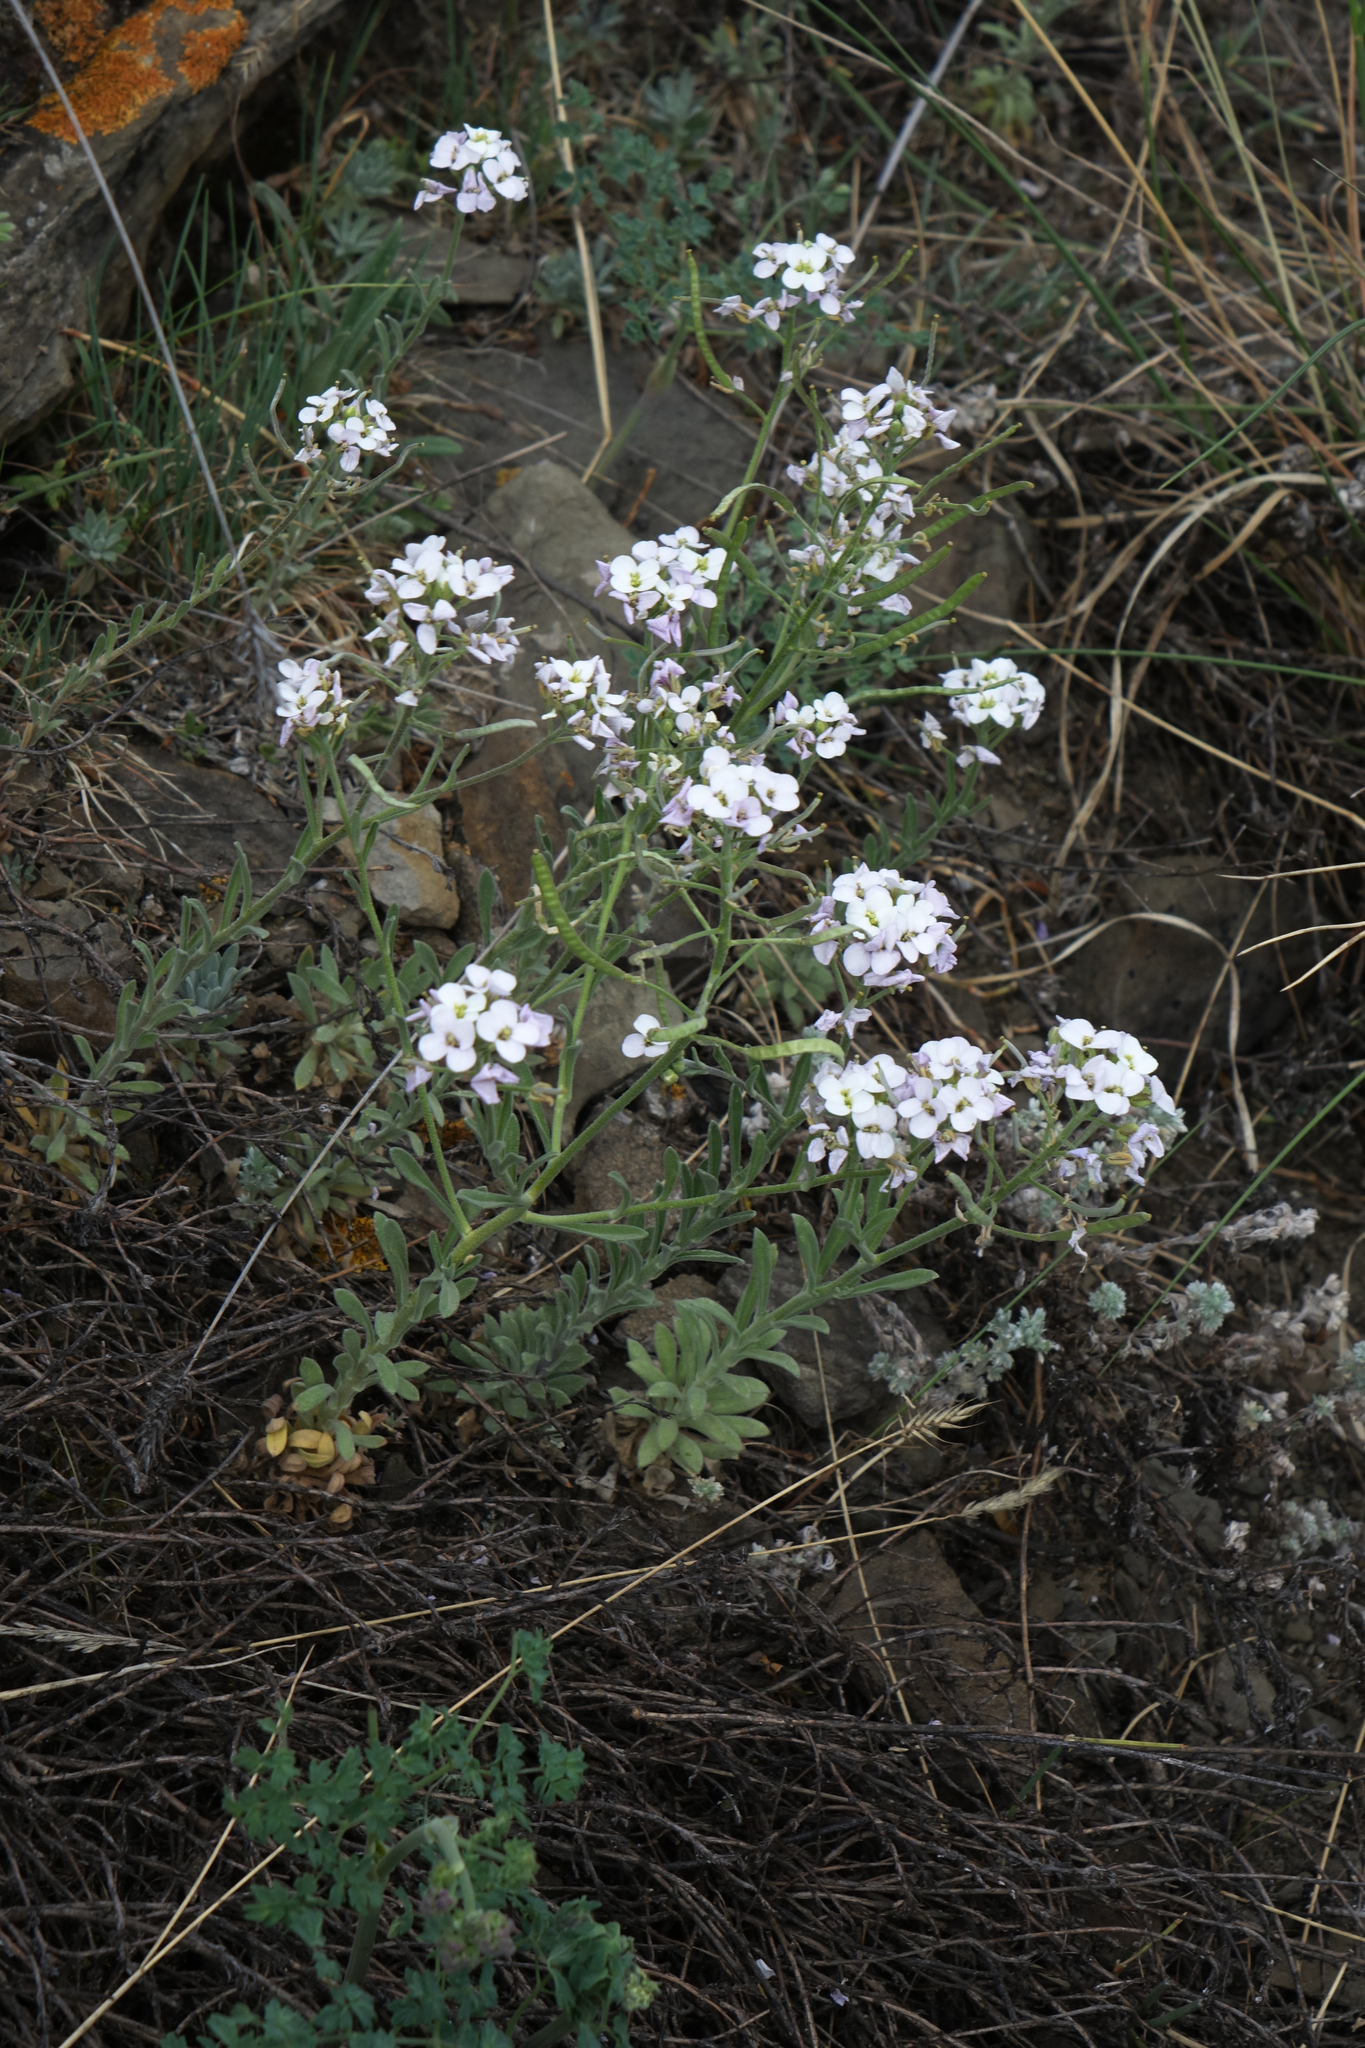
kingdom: Plantae
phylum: Tracheophyta
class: Magnoliopsida
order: Brassicales
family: Brassicaceae
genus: Stevenia
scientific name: Stevenia incarnata
